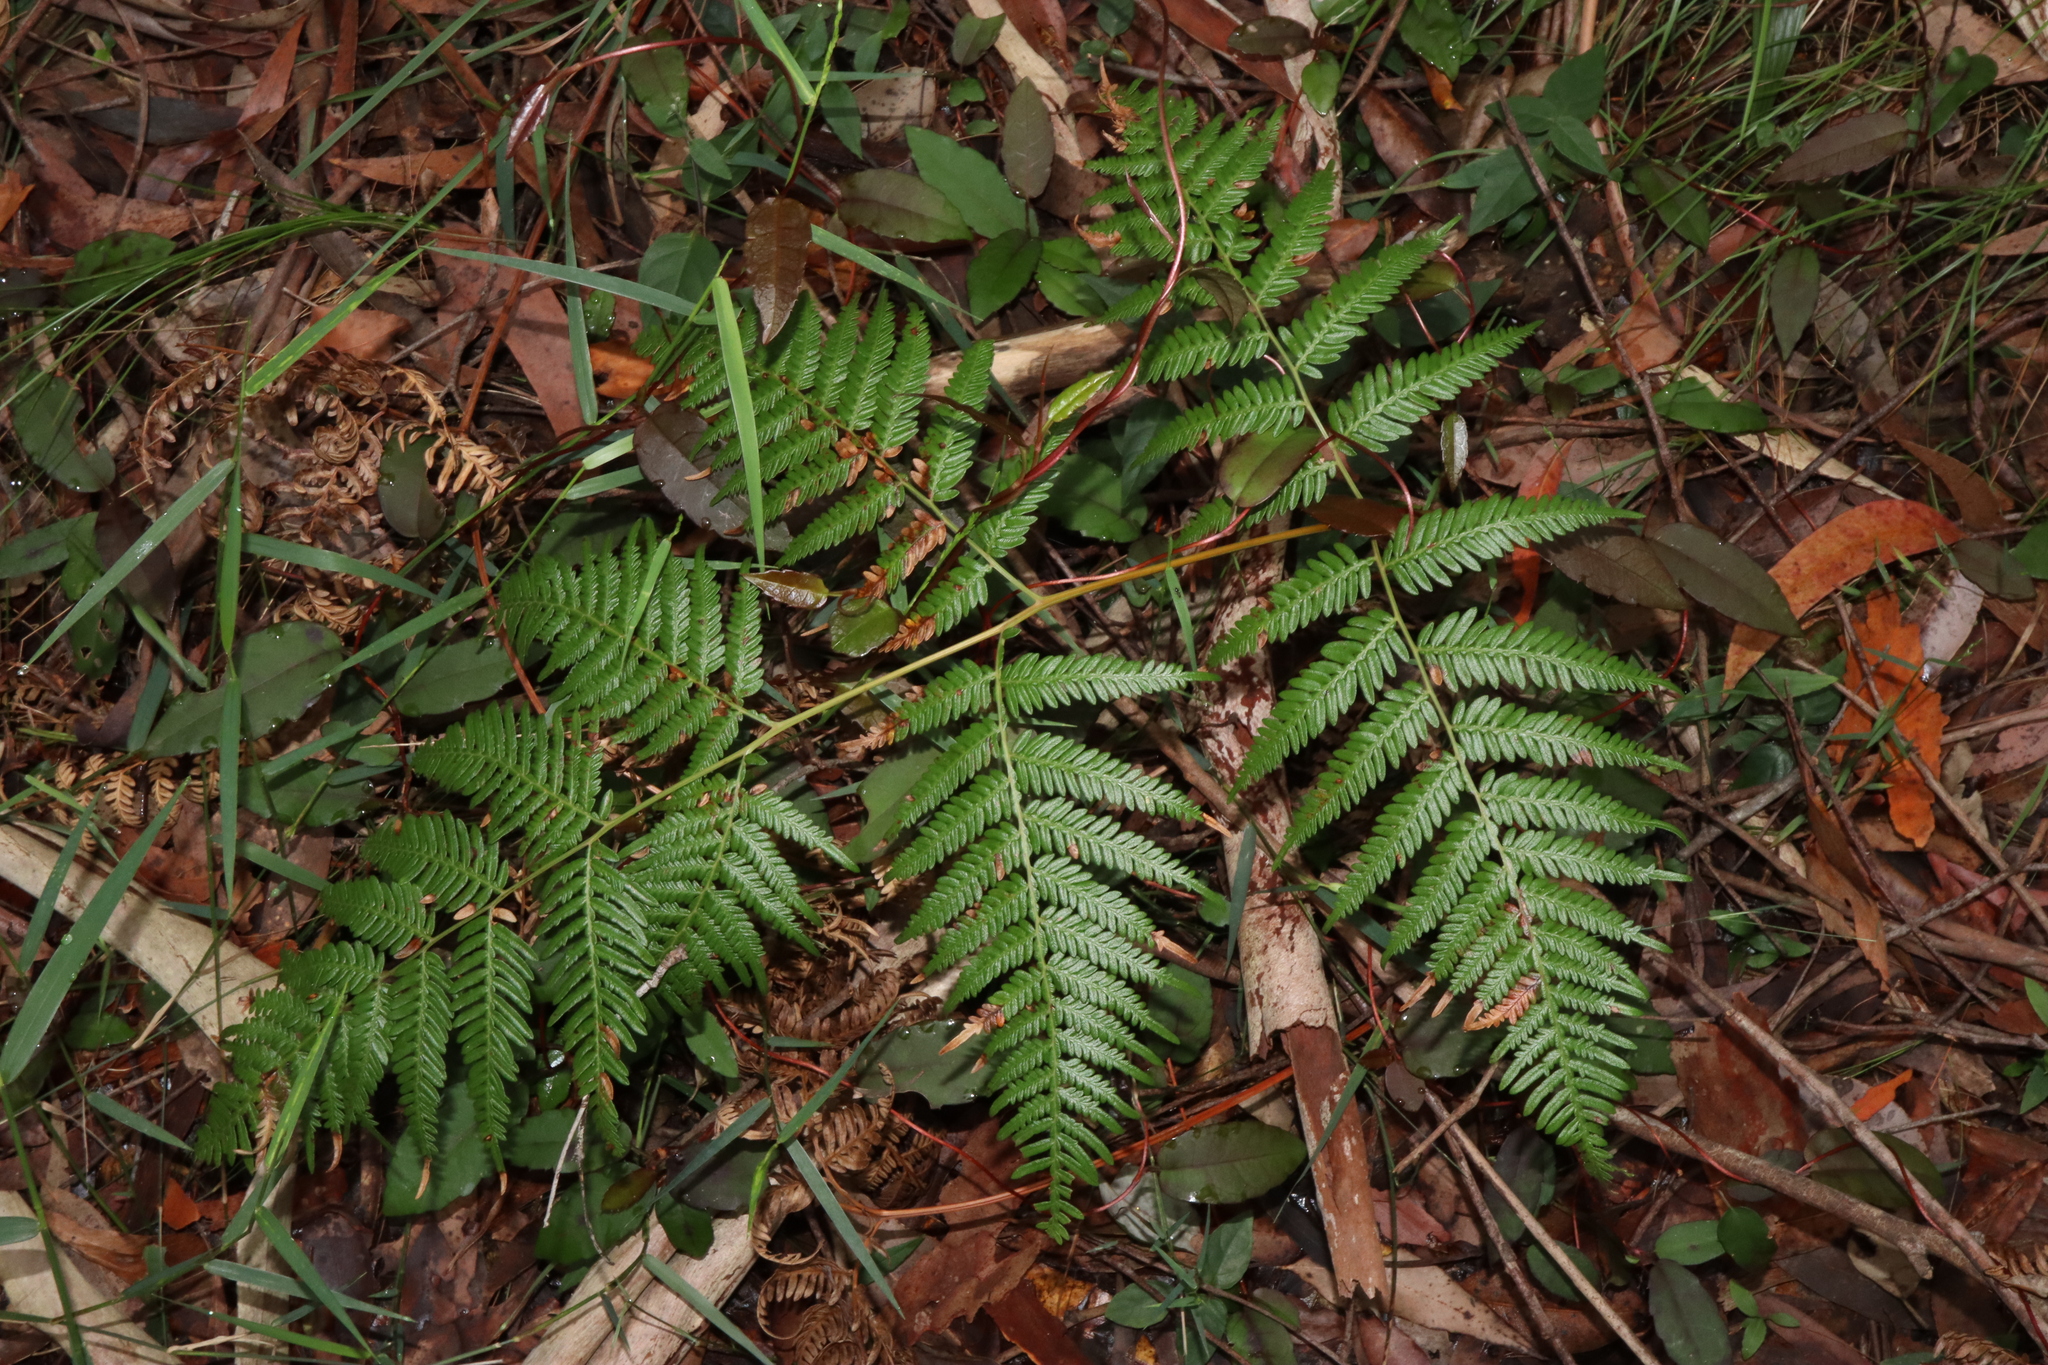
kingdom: Plantae
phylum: Tracheophyta
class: Polypodiopsida
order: Polypodiales
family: Dennstaedtiaceae
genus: Pteridium
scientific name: Pteridium esculentum
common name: Bracken fern
